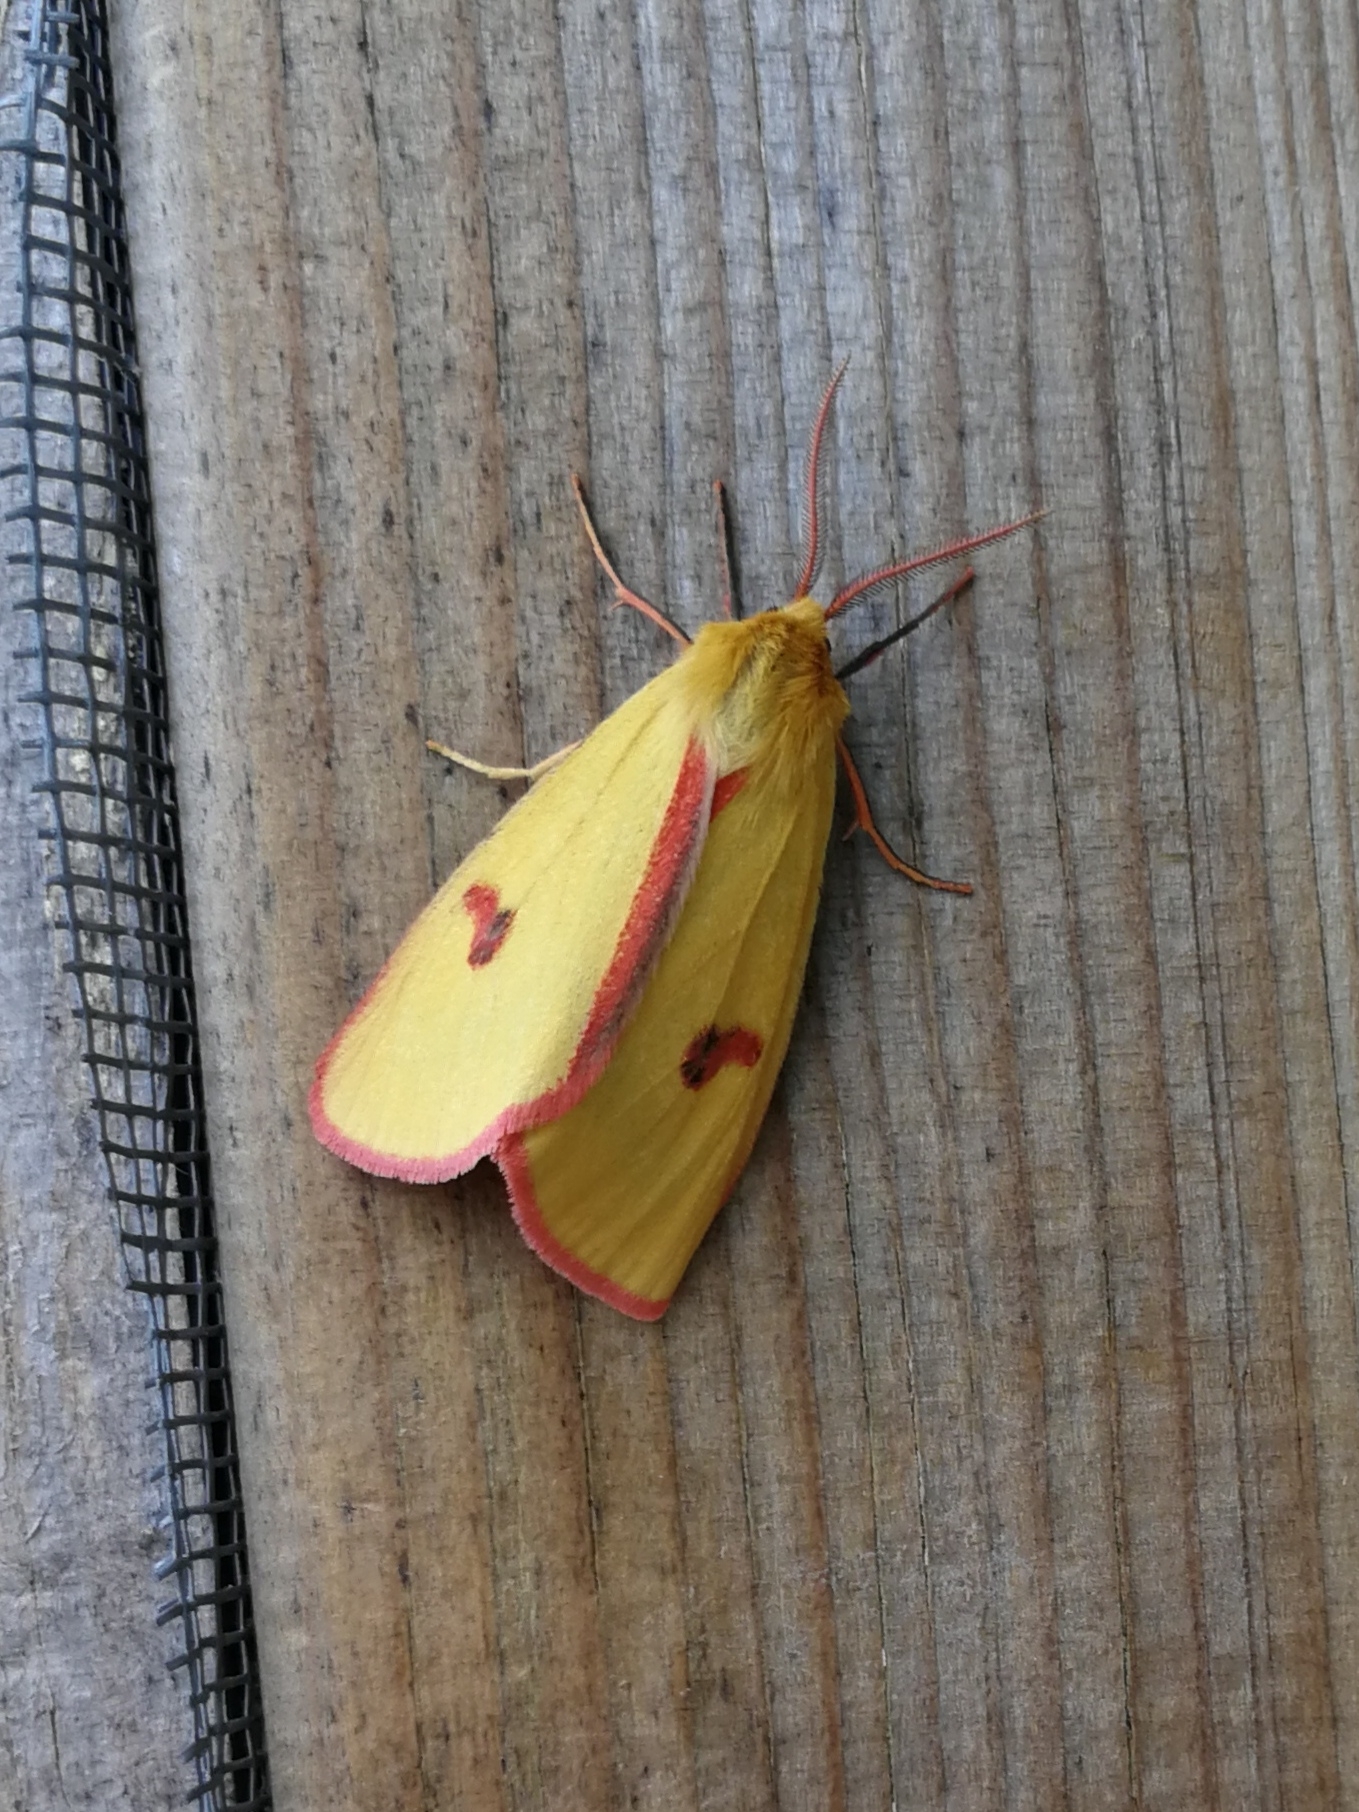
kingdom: Animalia
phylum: Arthropoda
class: Insecta
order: Lepidoptera
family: Erebidae
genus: Diacrisia
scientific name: Diacrisia sannio
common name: Clouded buff
